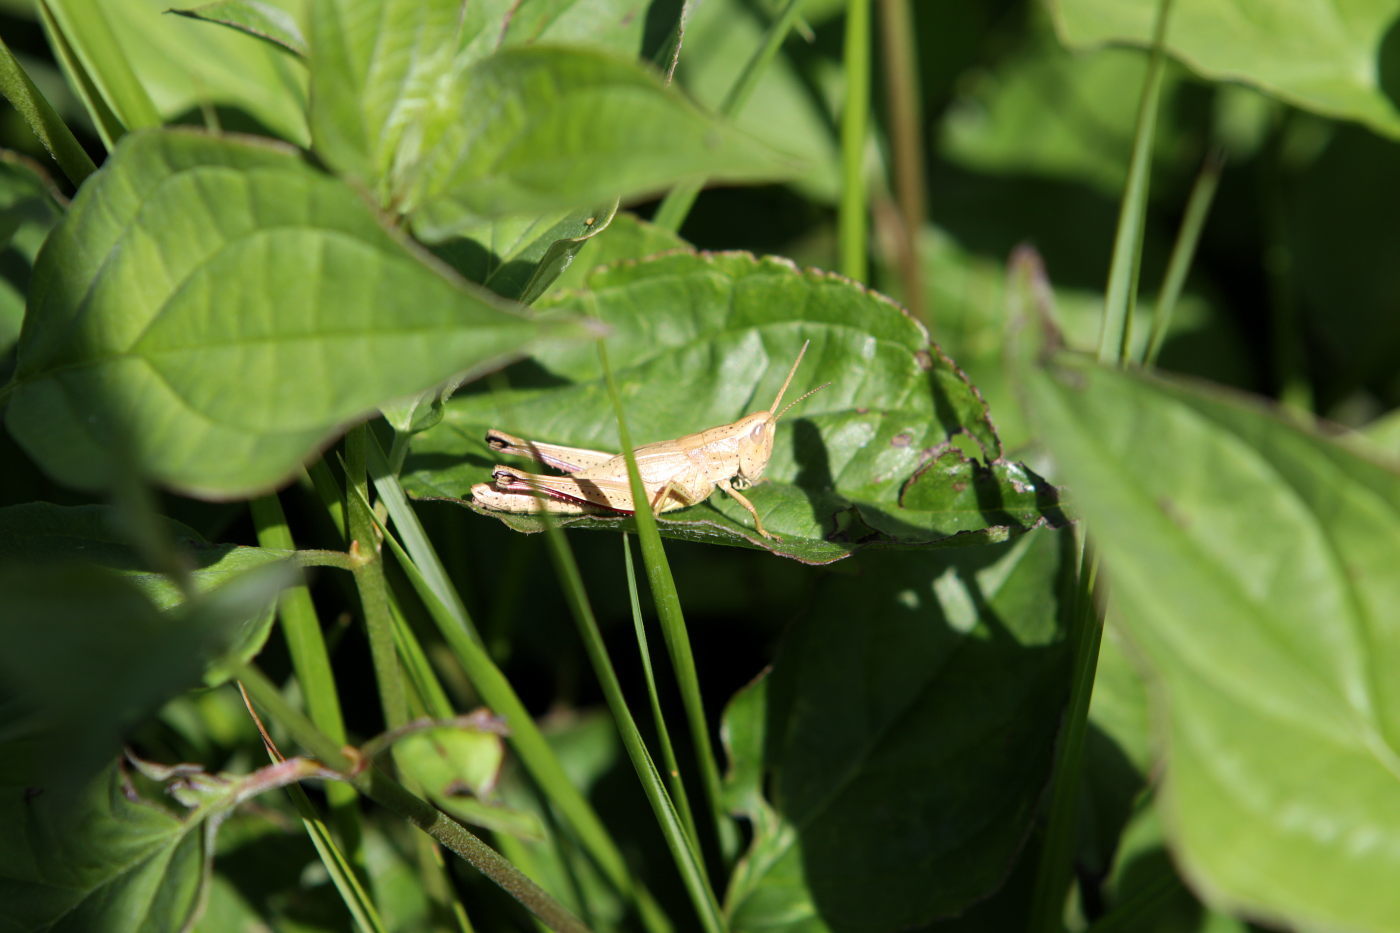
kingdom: Animalia
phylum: Arthropoda
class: Insecta
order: Orthoptera
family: Acrididae
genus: Chrysochraon
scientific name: Chrysochraon dispar
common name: Large gold grasshopper
